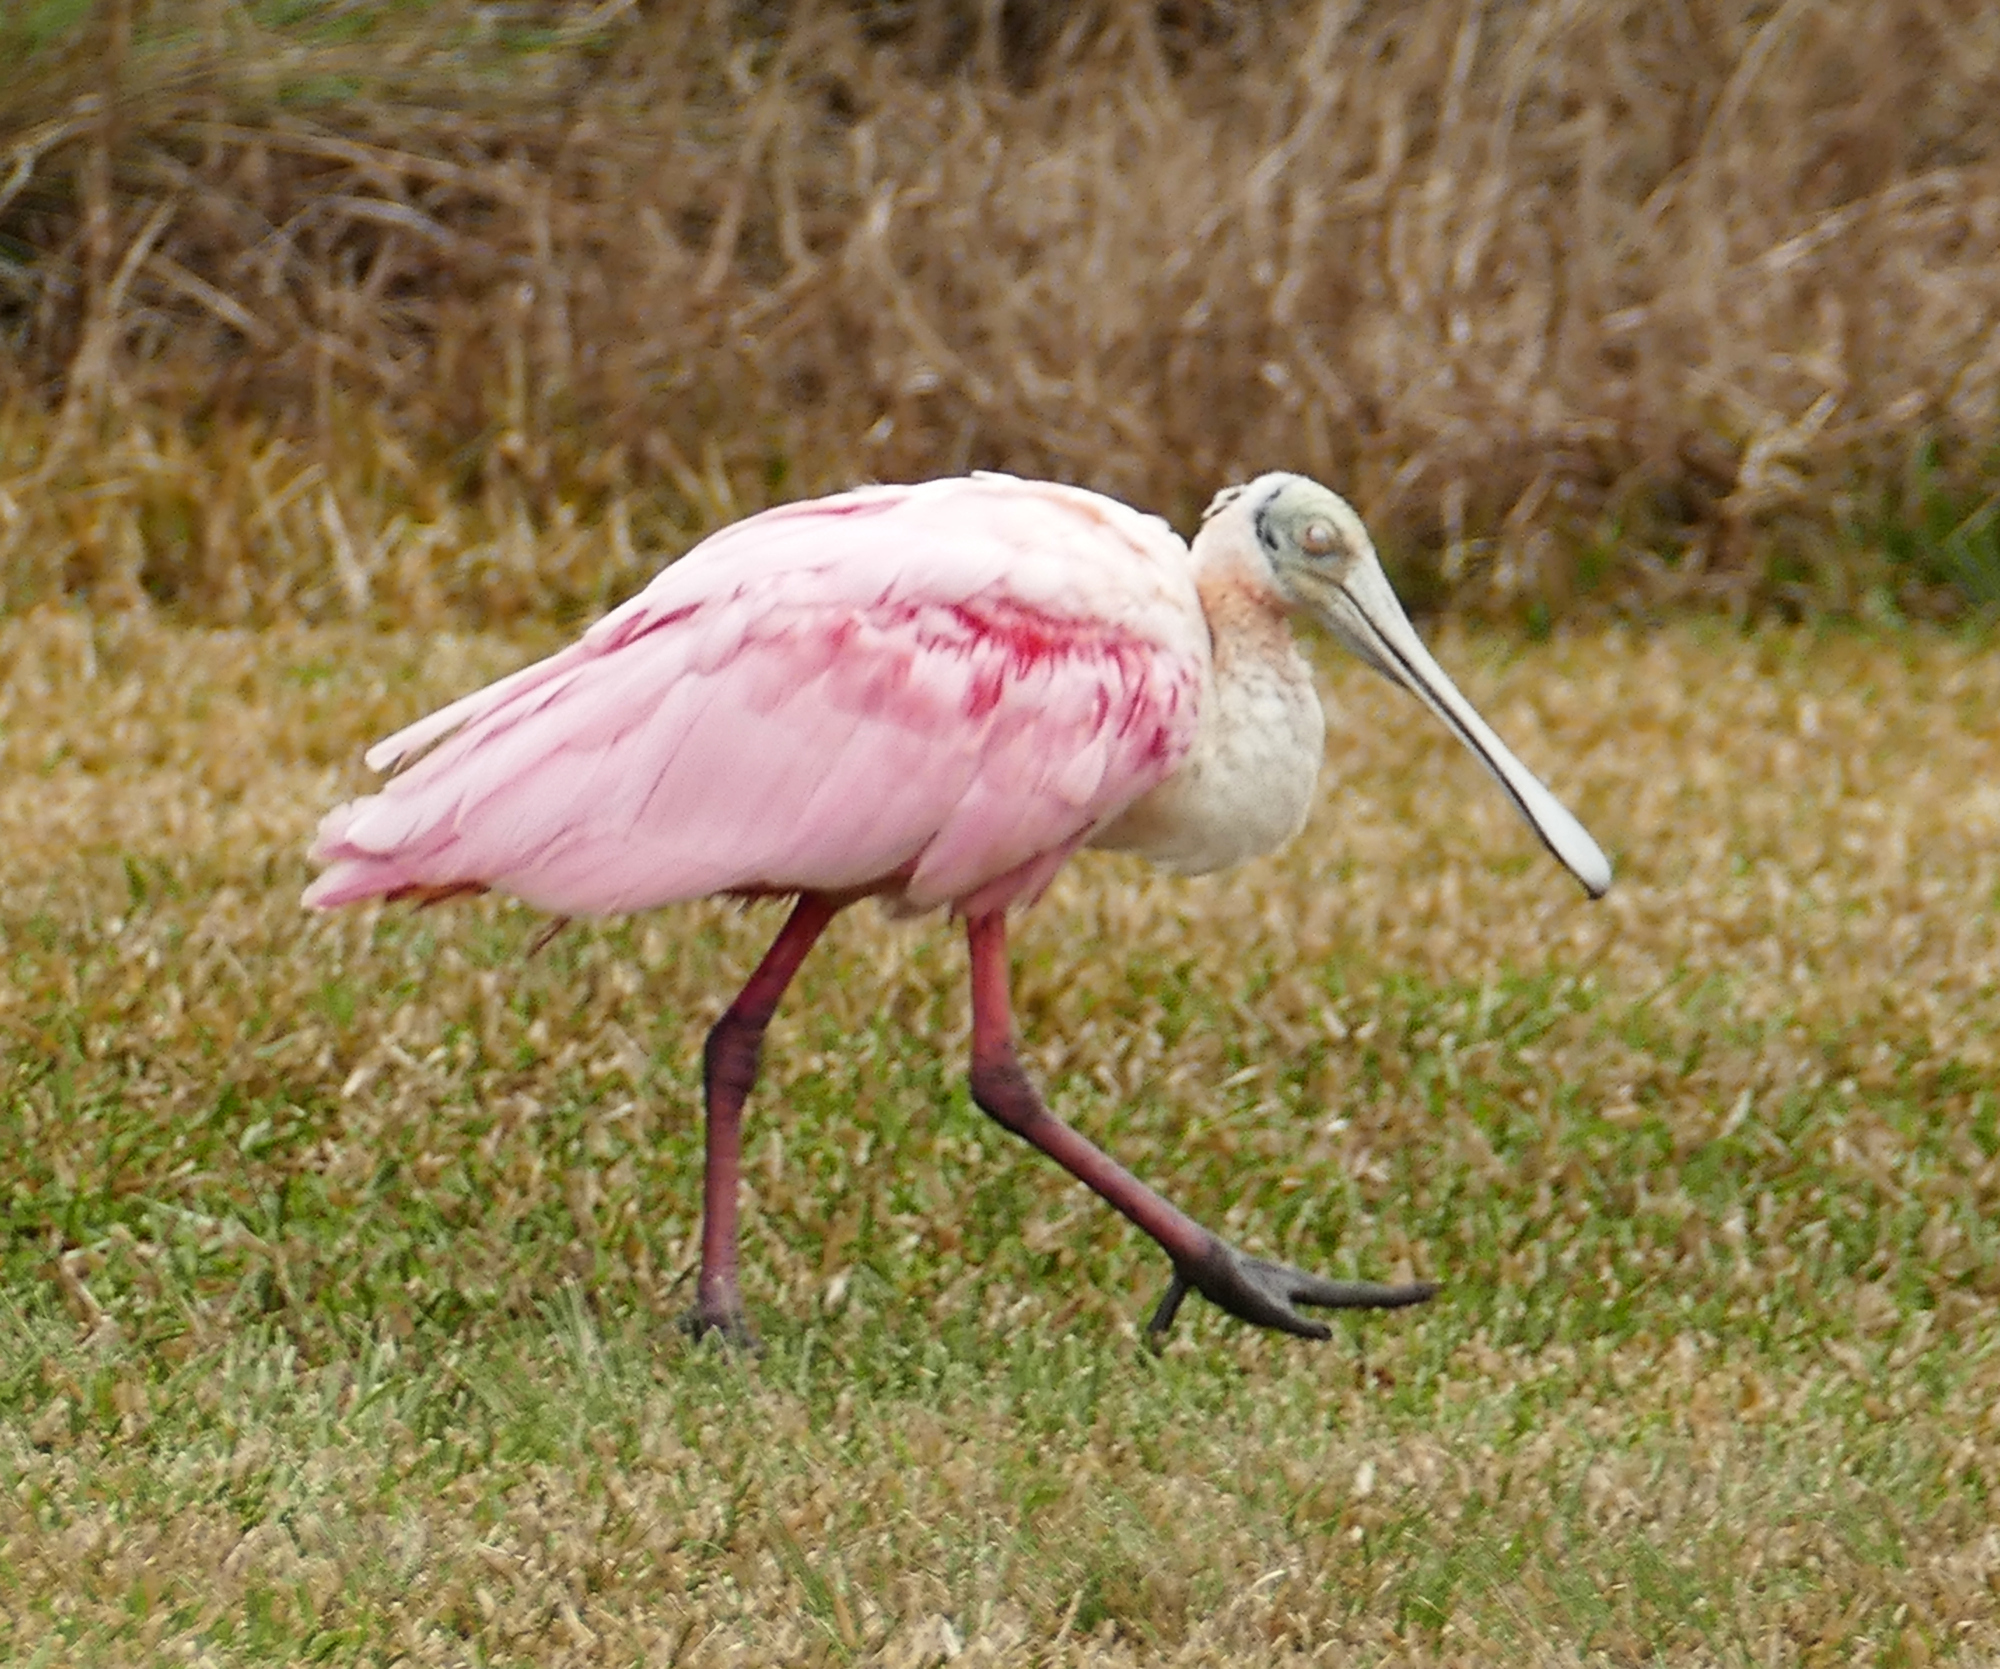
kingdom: Animalia
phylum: Chordata
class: Aves
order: Pelecaniformes
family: Threskiornithidae
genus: Platalea
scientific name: Platalea ajaja
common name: Roseate spoonbill
